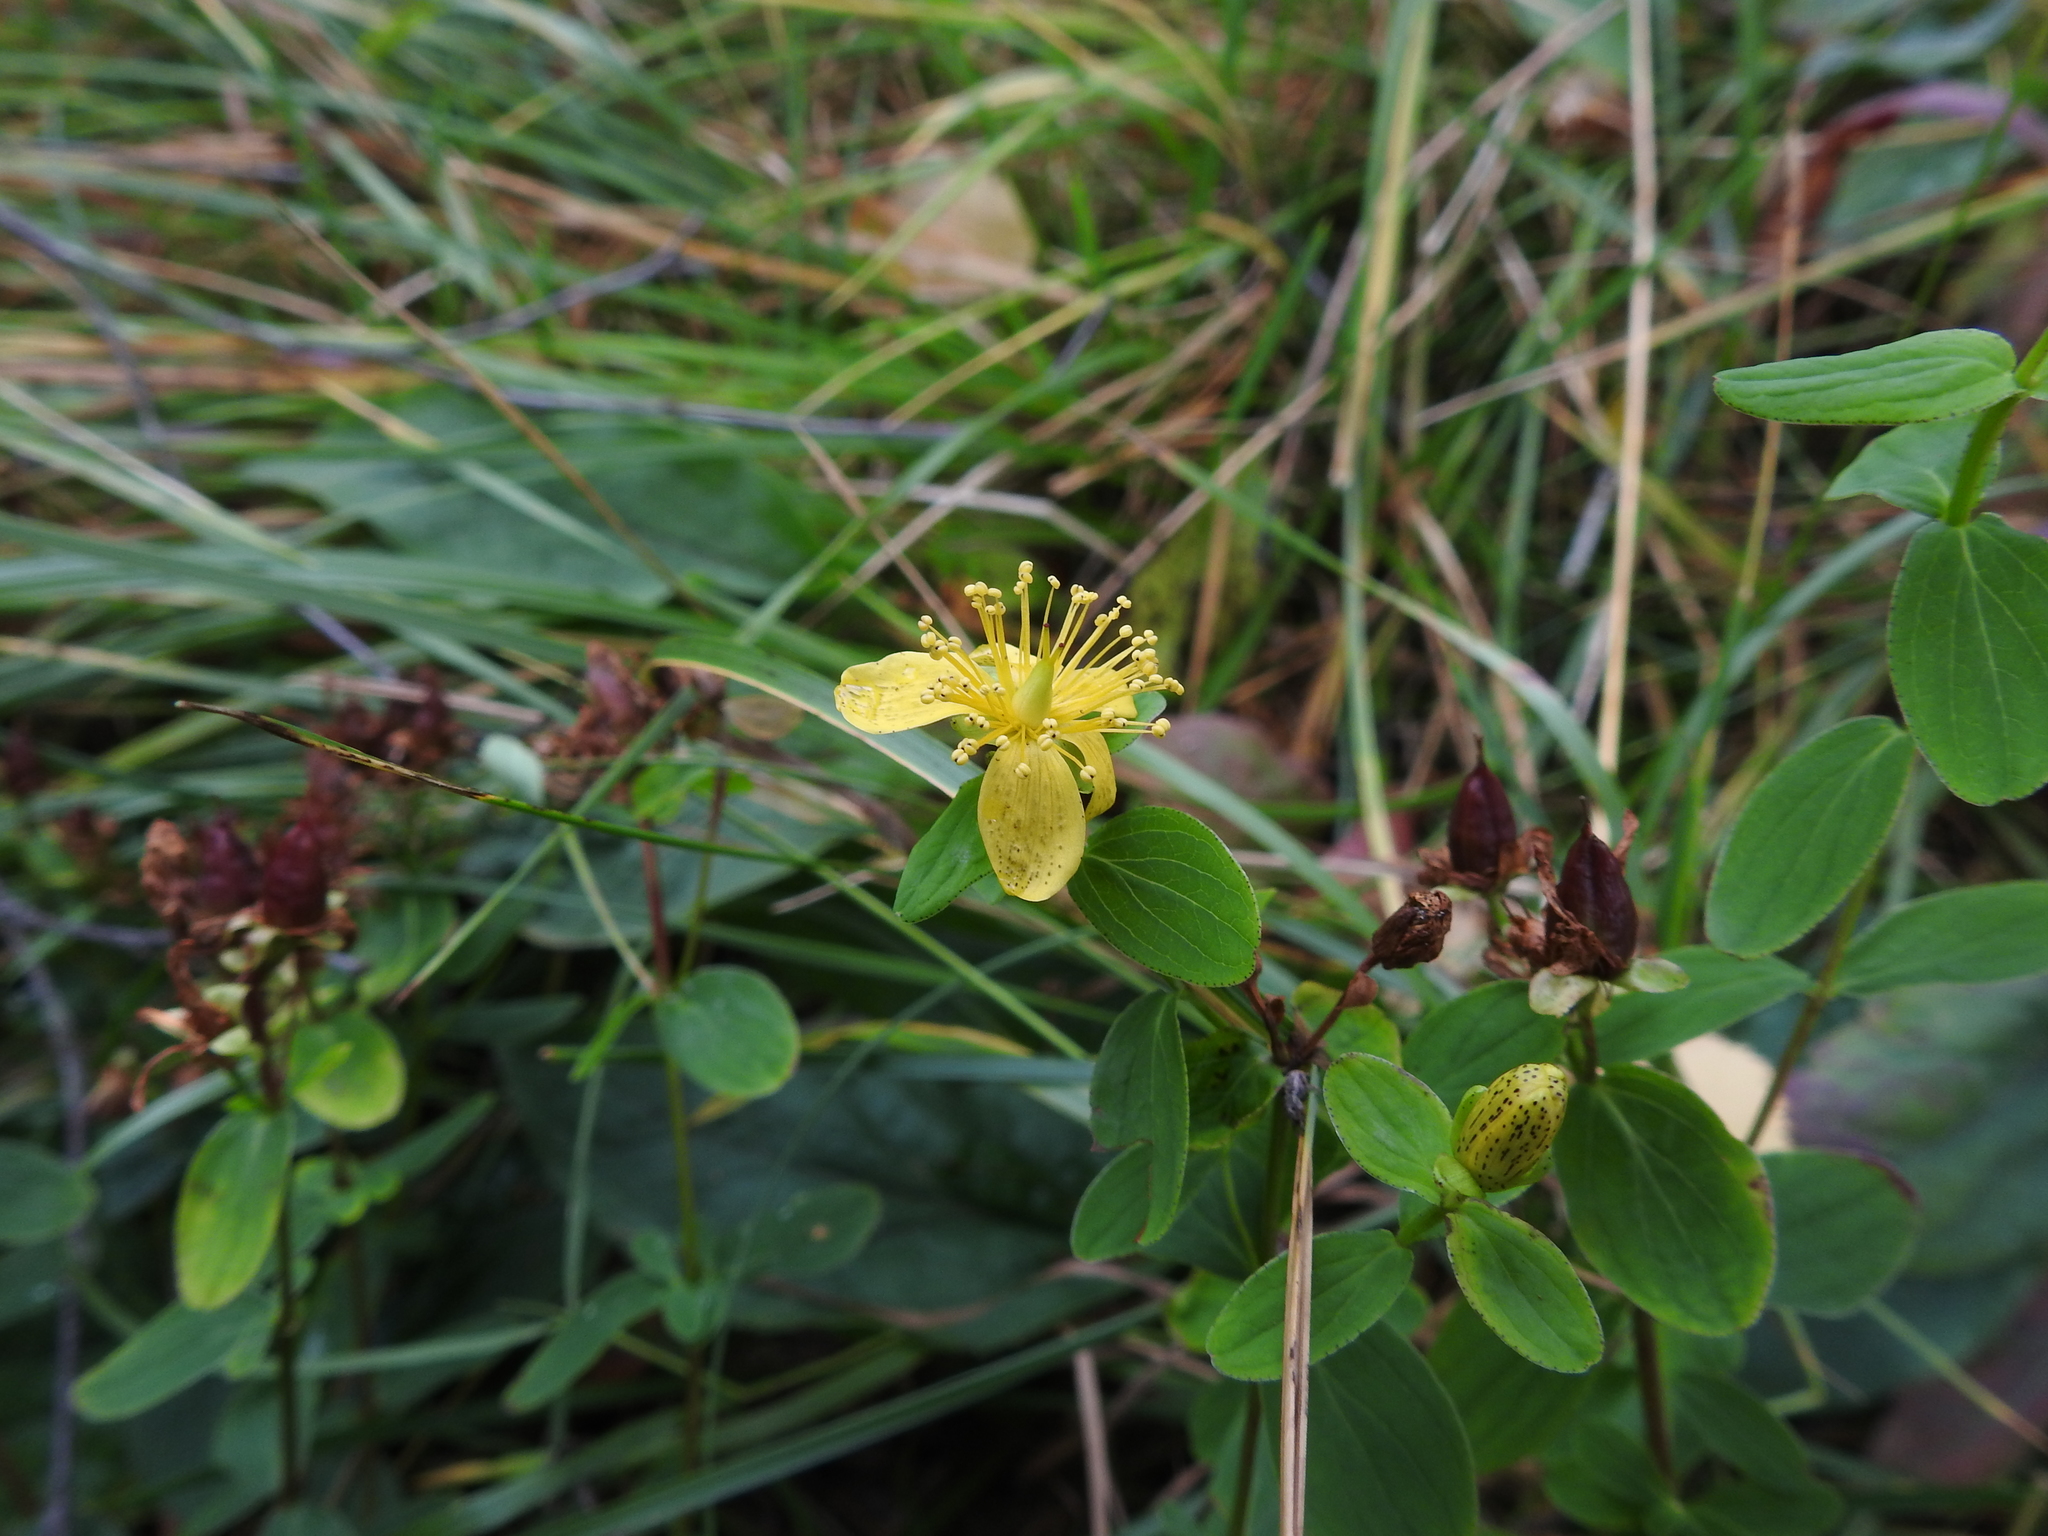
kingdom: Plantae
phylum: Tracheophyta
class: Magnoliopsida
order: Malpighiales
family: Hypericaceae
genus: Hypericum
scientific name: Hypericum maculatum
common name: Imperforate st. john's-wort
